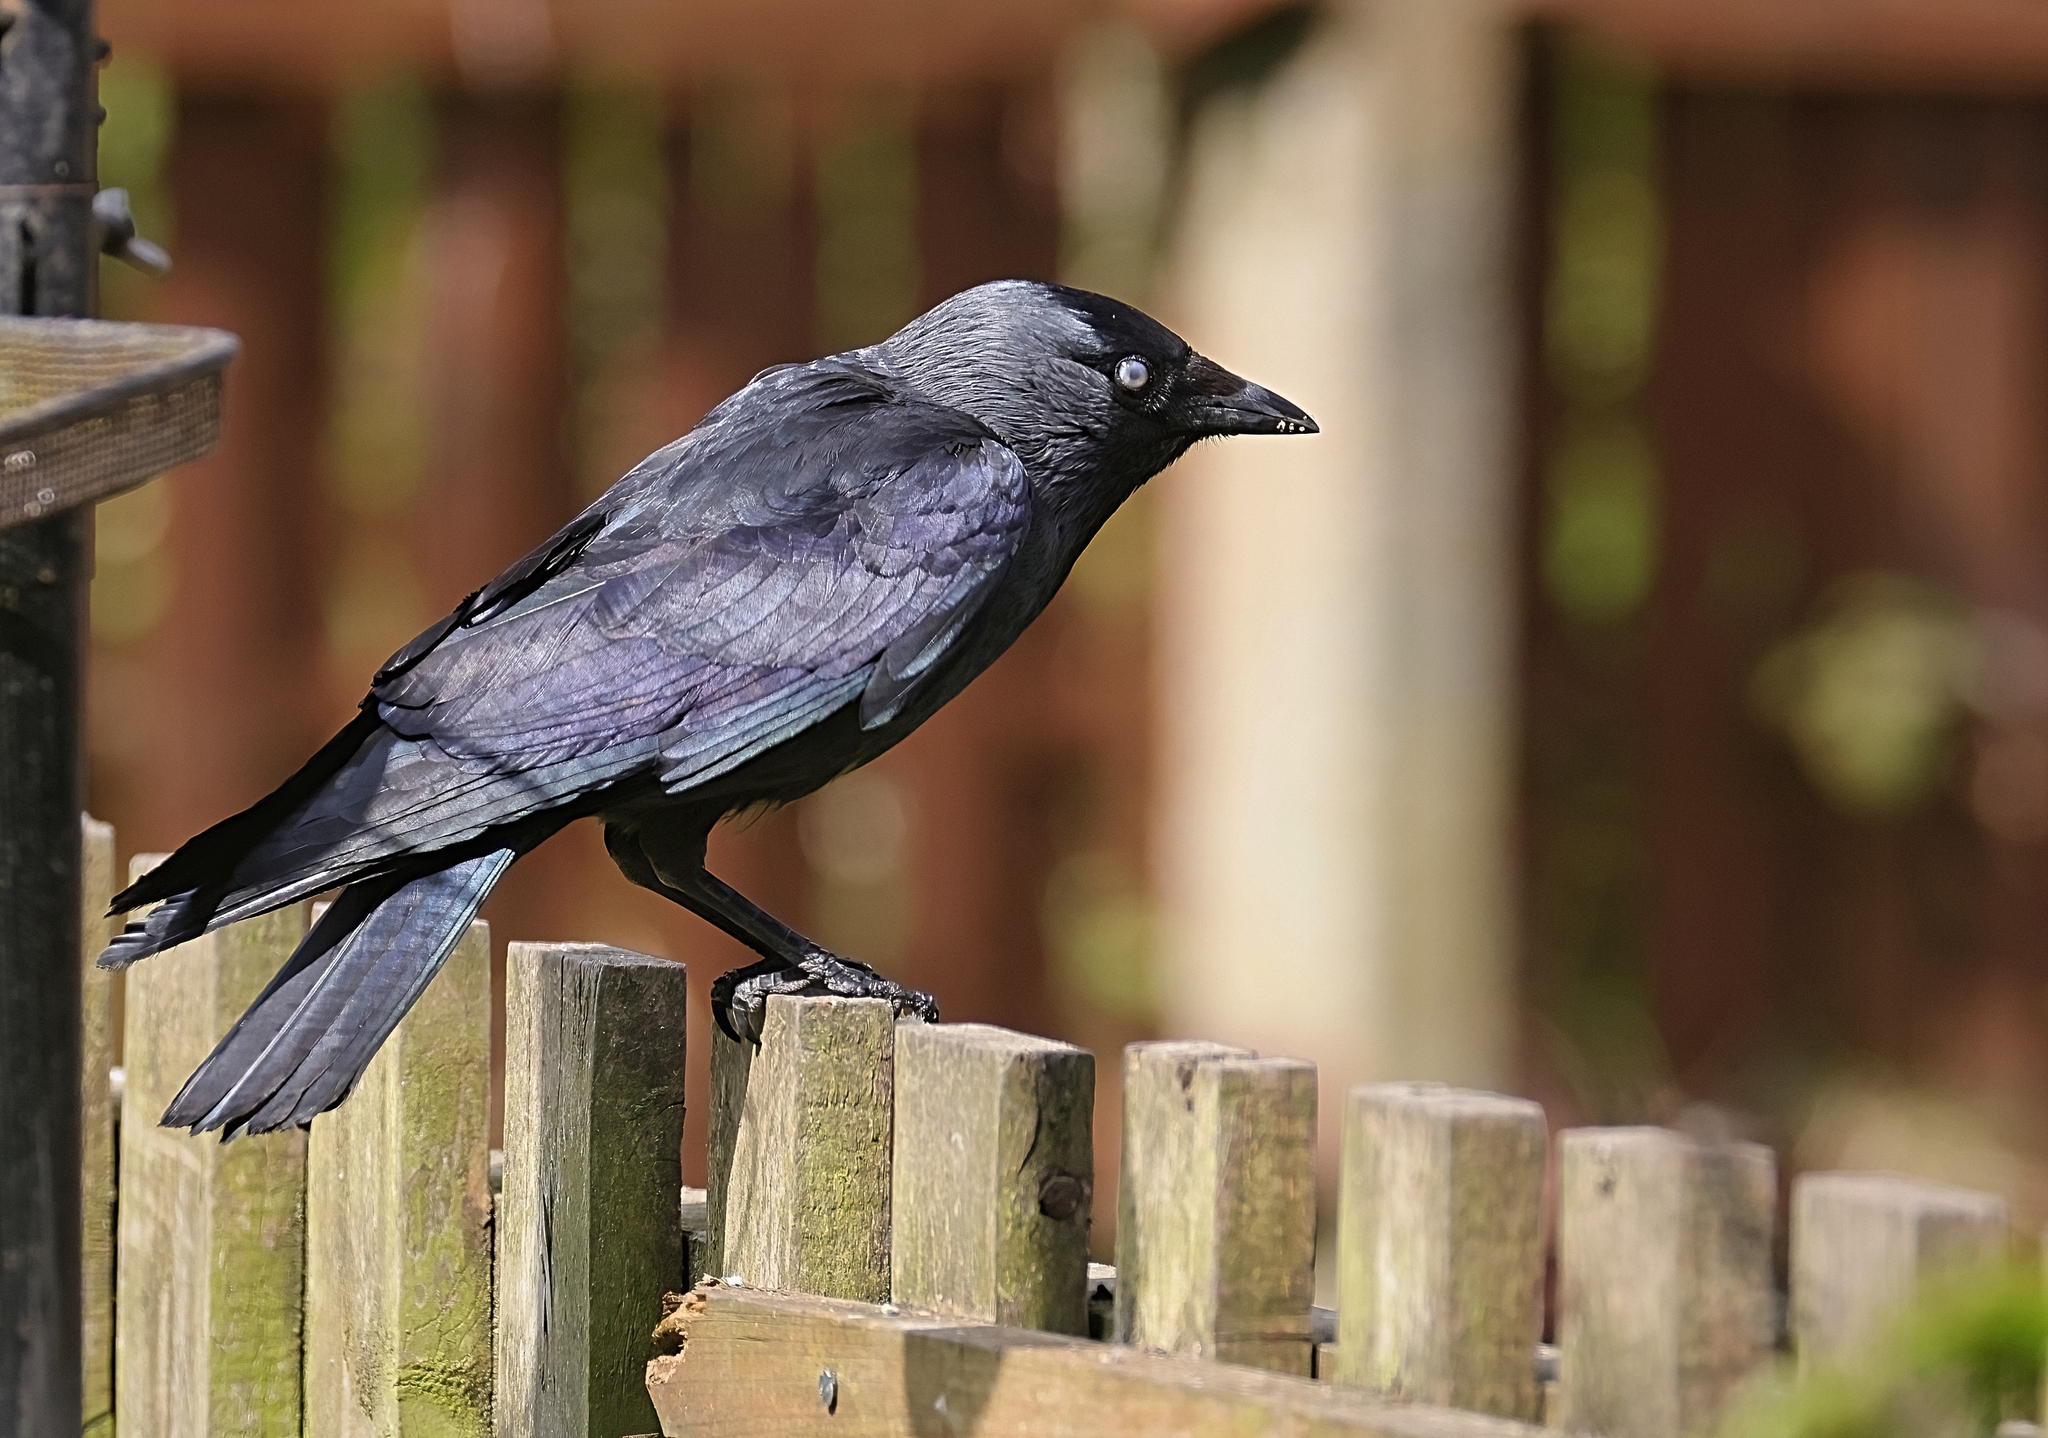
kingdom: Animalia
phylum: Chordata
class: Aves
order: Passeriformes
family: Corvidae
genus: Coloeus
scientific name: Coloeus monedula
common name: Western jackdaw
